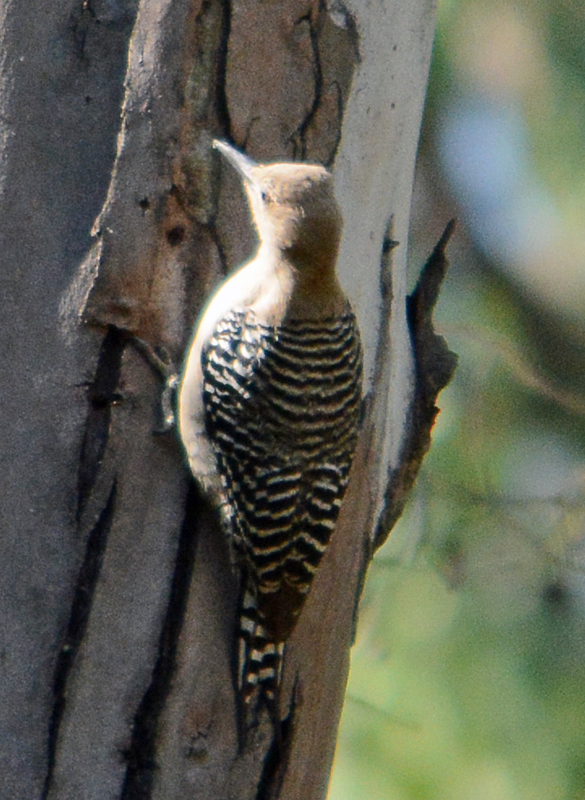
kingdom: Animalia
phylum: Chordata
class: Aves
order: Piciformes
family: Picidae
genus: Melanerpes
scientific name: Melanerpes uropygialis
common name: Gila woodpecker
